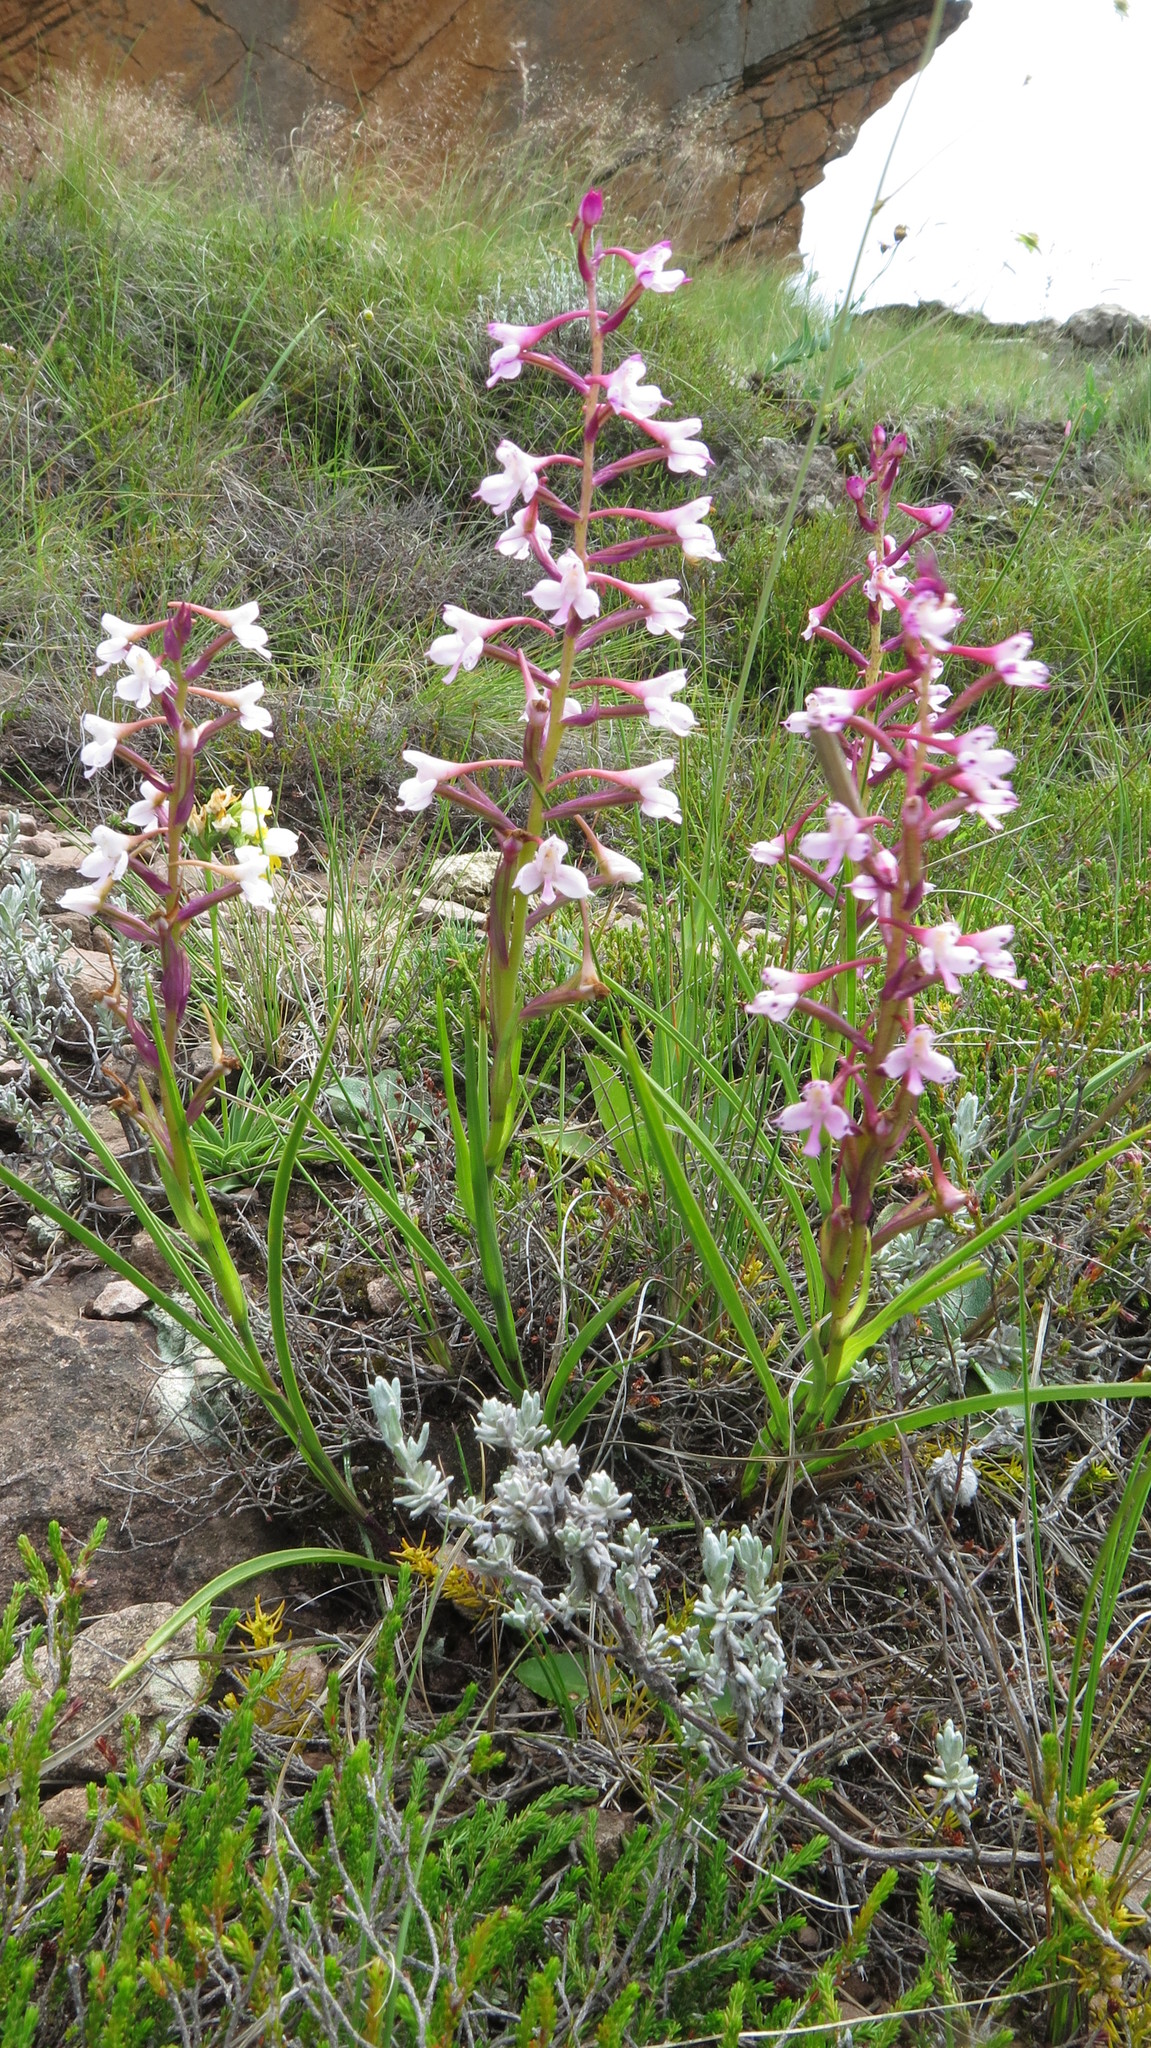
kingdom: Plantae
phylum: Tracheophyta
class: Liliopsida
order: Asparagales
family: Orchidaceae
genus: Disa
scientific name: Disa oreophila
